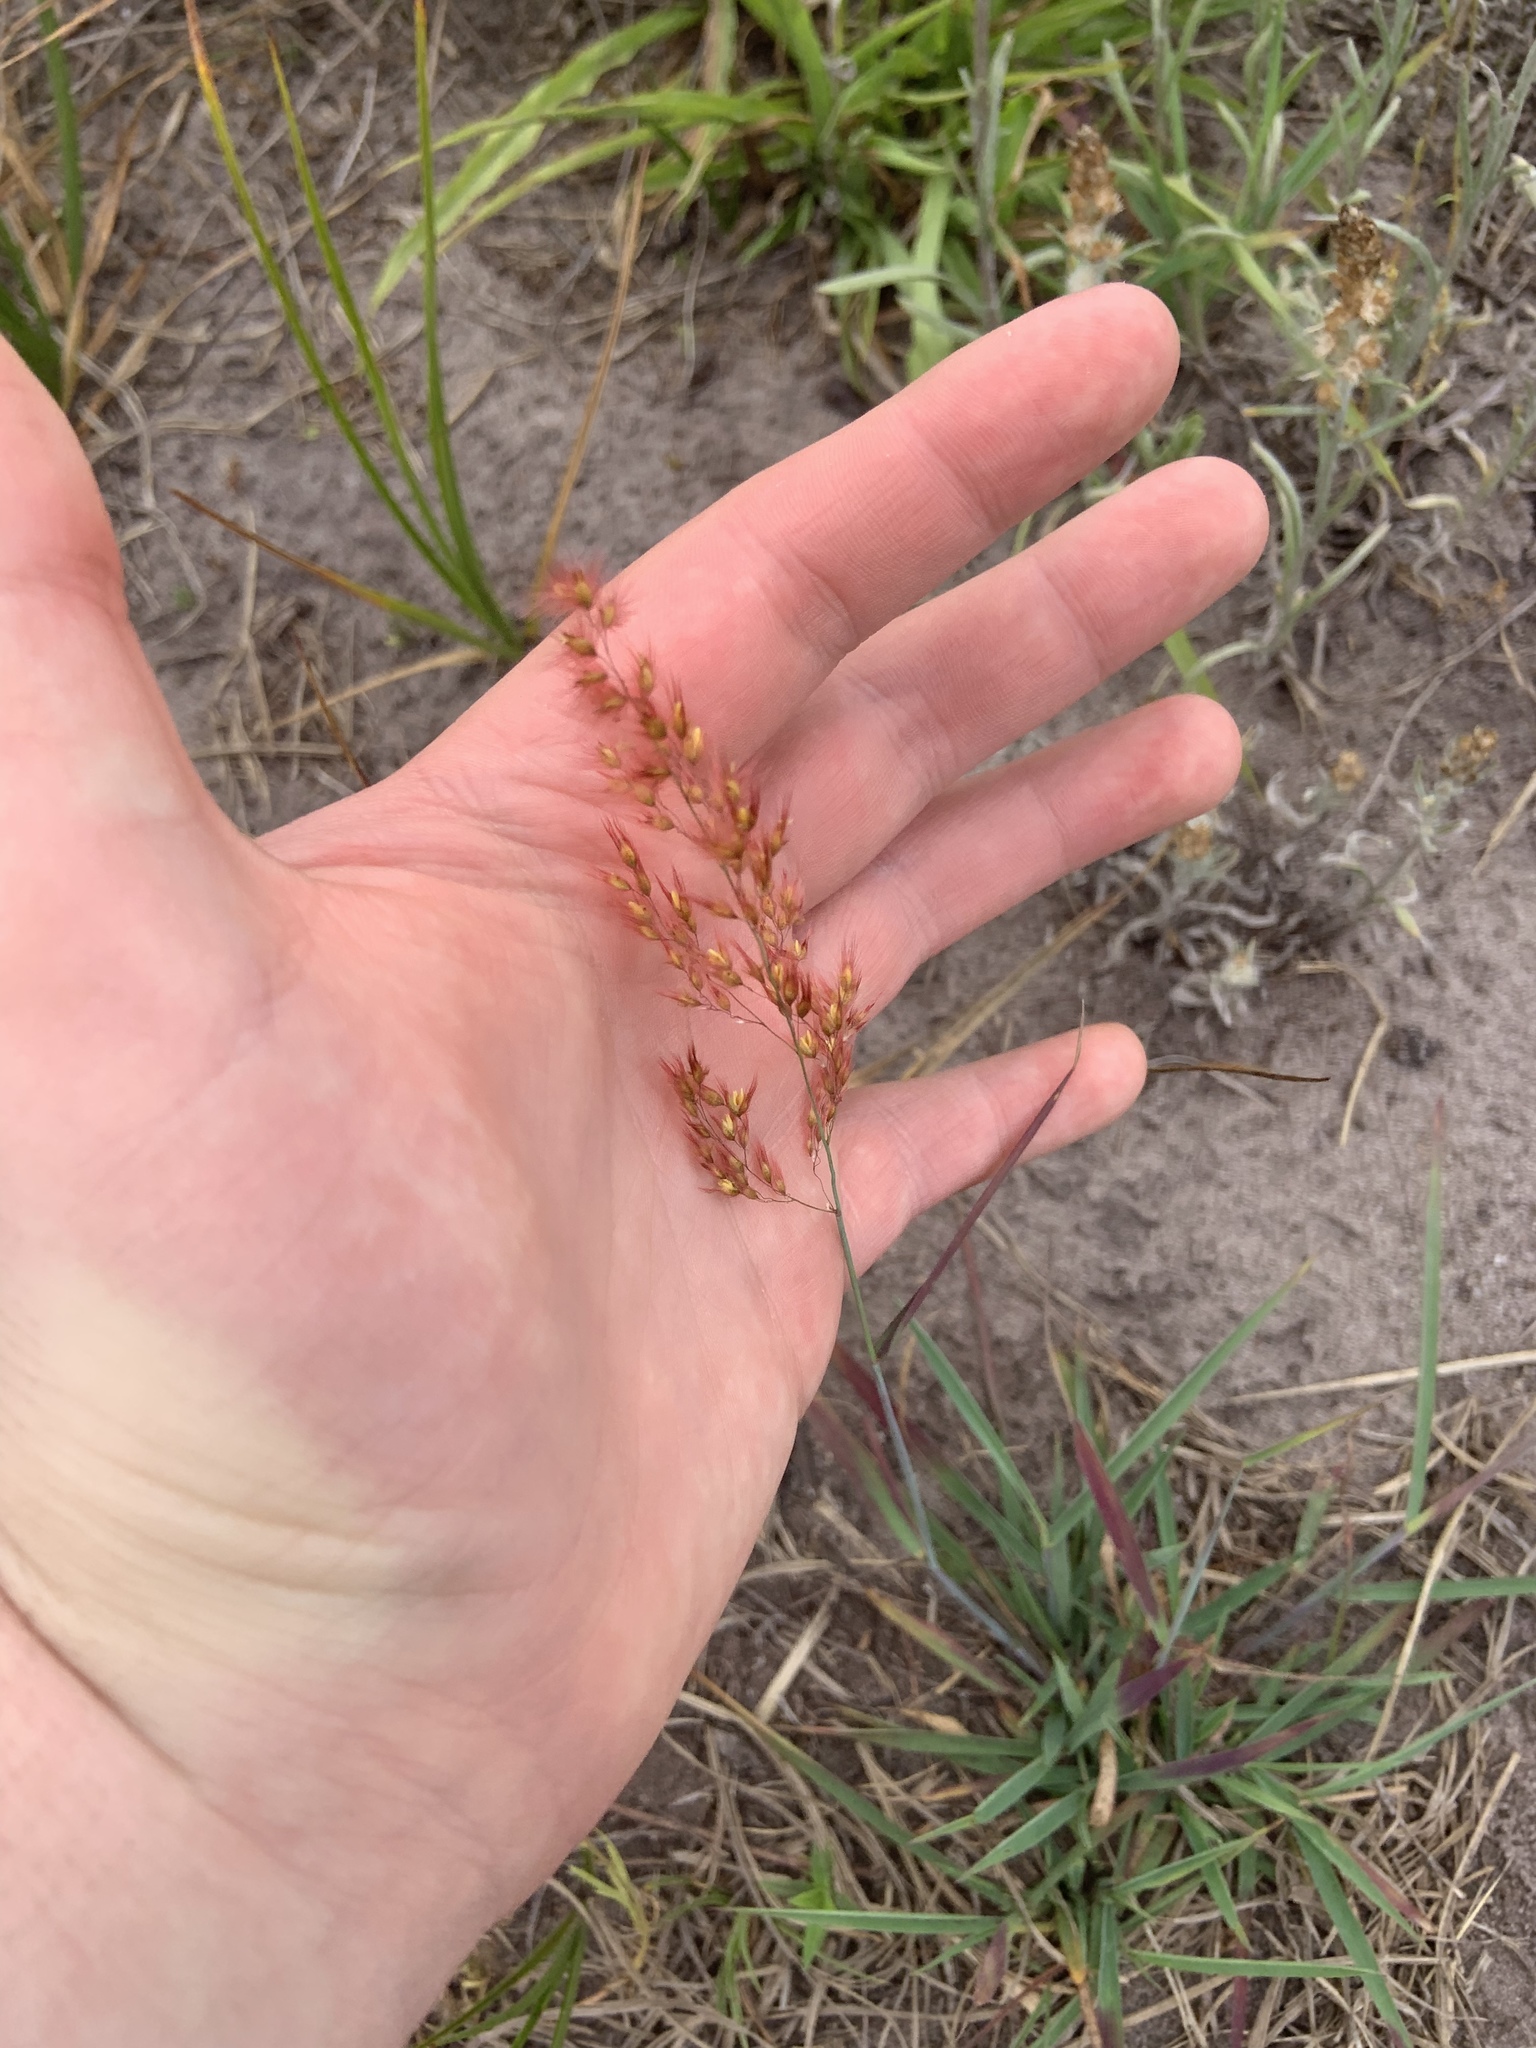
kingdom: Plantae
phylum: Tracheophyta
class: Liliopsida
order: Poales
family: Poaceae
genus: Melinis
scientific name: Melinis repens
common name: Rose natal grass
